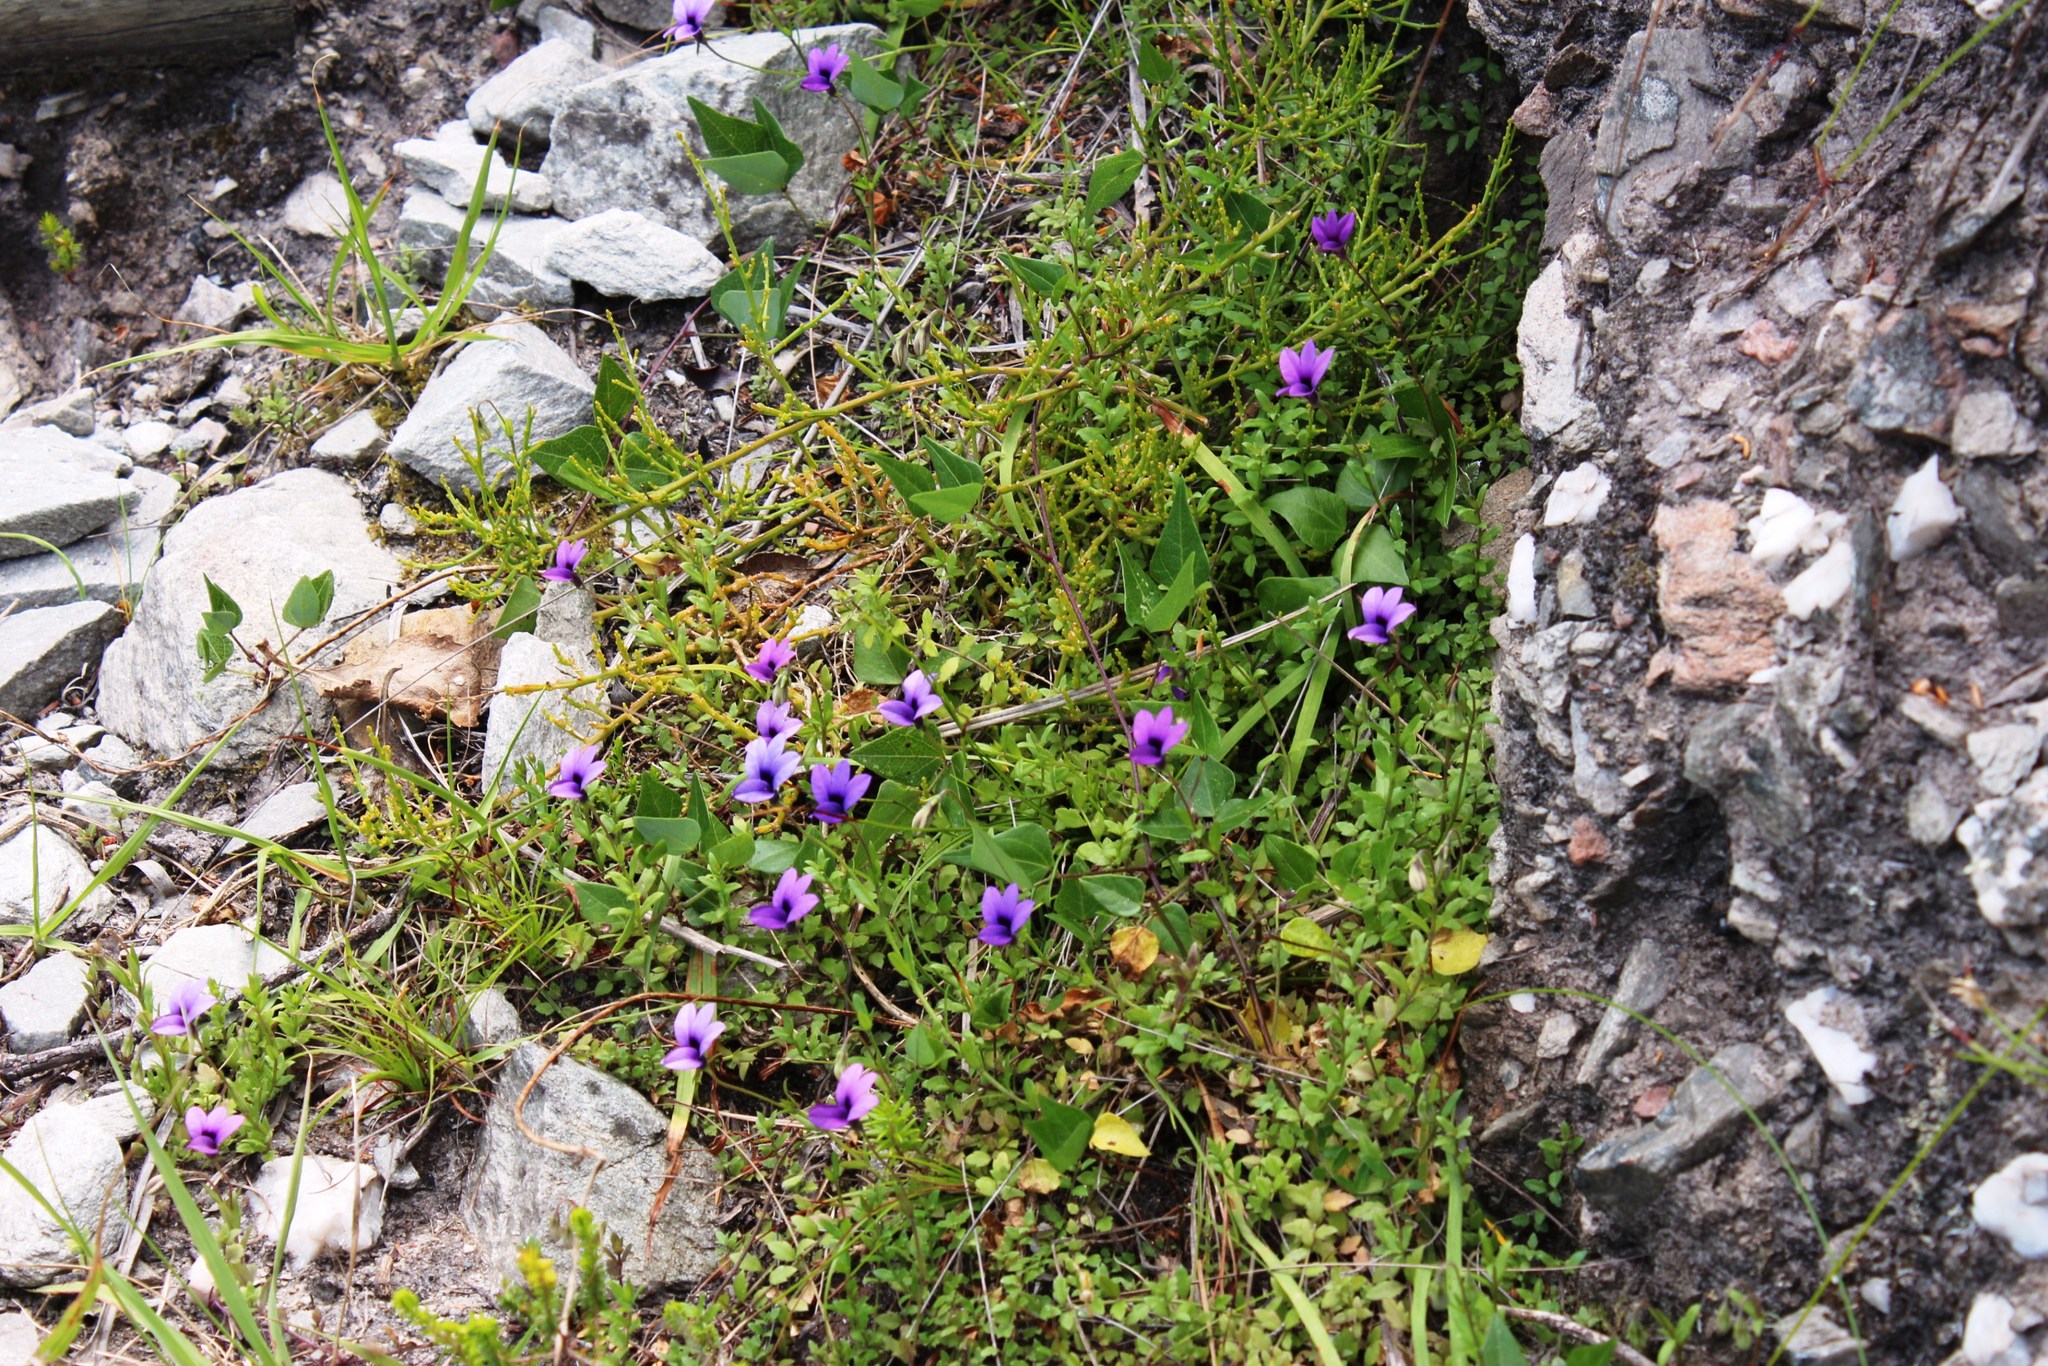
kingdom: Plantae
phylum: Tracheophyta
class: Magnoliopsida
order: Asterales
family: Campanulaceae
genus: Monopsis
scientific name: Monopsis unidentata
